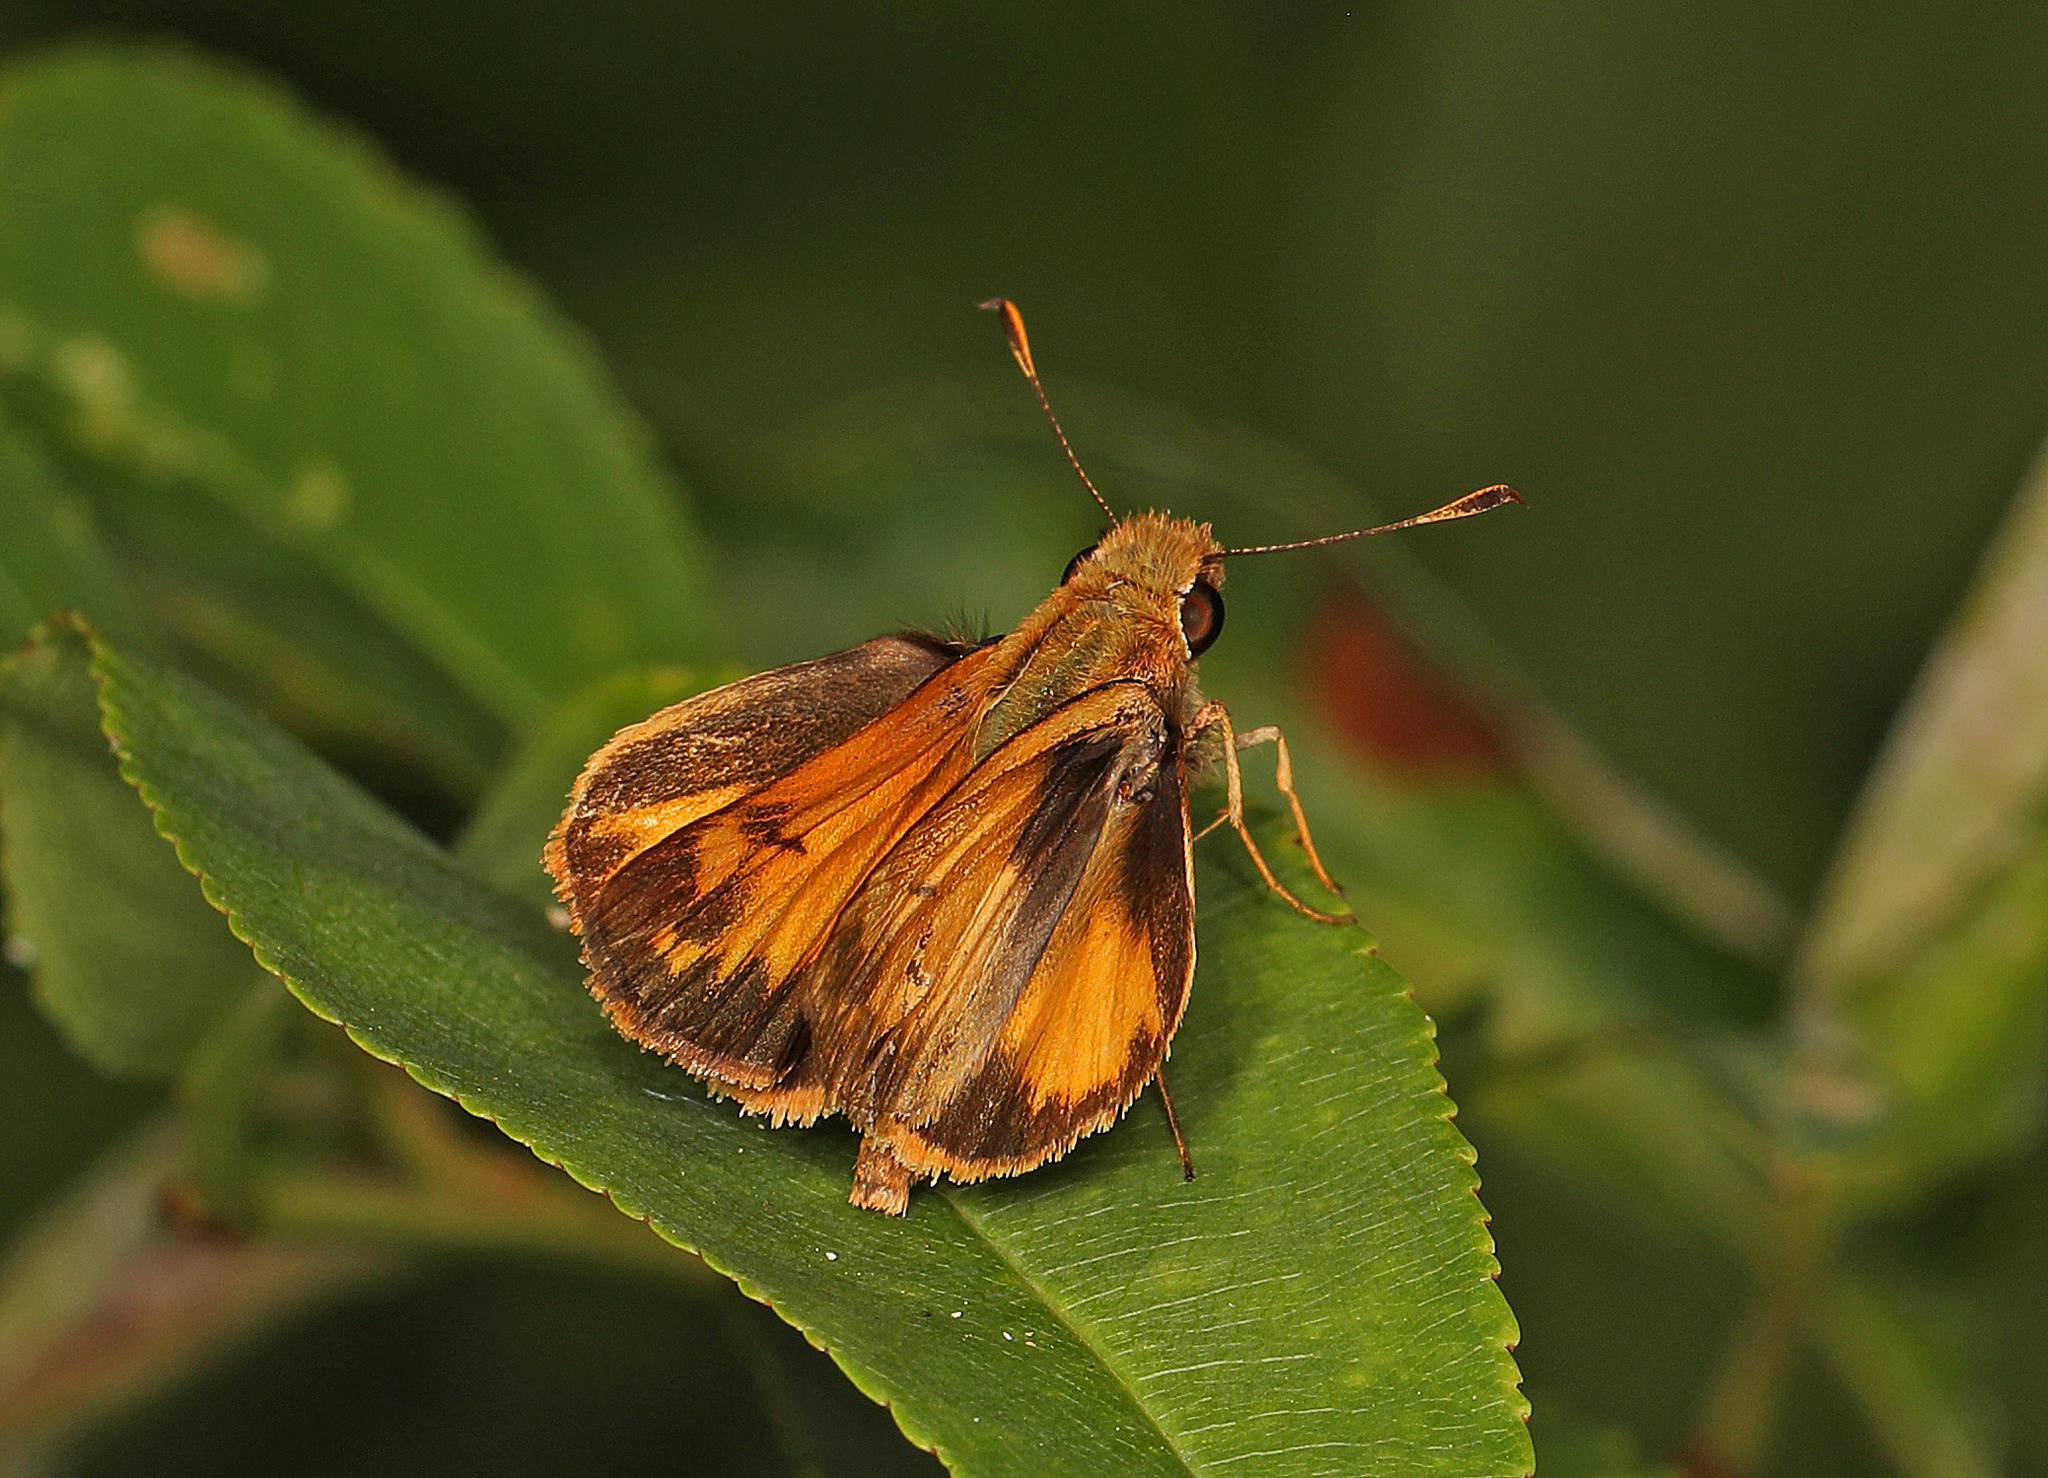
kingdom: Animalia
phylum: Arthropoda
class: Insecta
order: Lepidoptera
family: Hesperiidae
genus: Lon
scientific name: Lon zabulon
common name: Zabulon skipper
